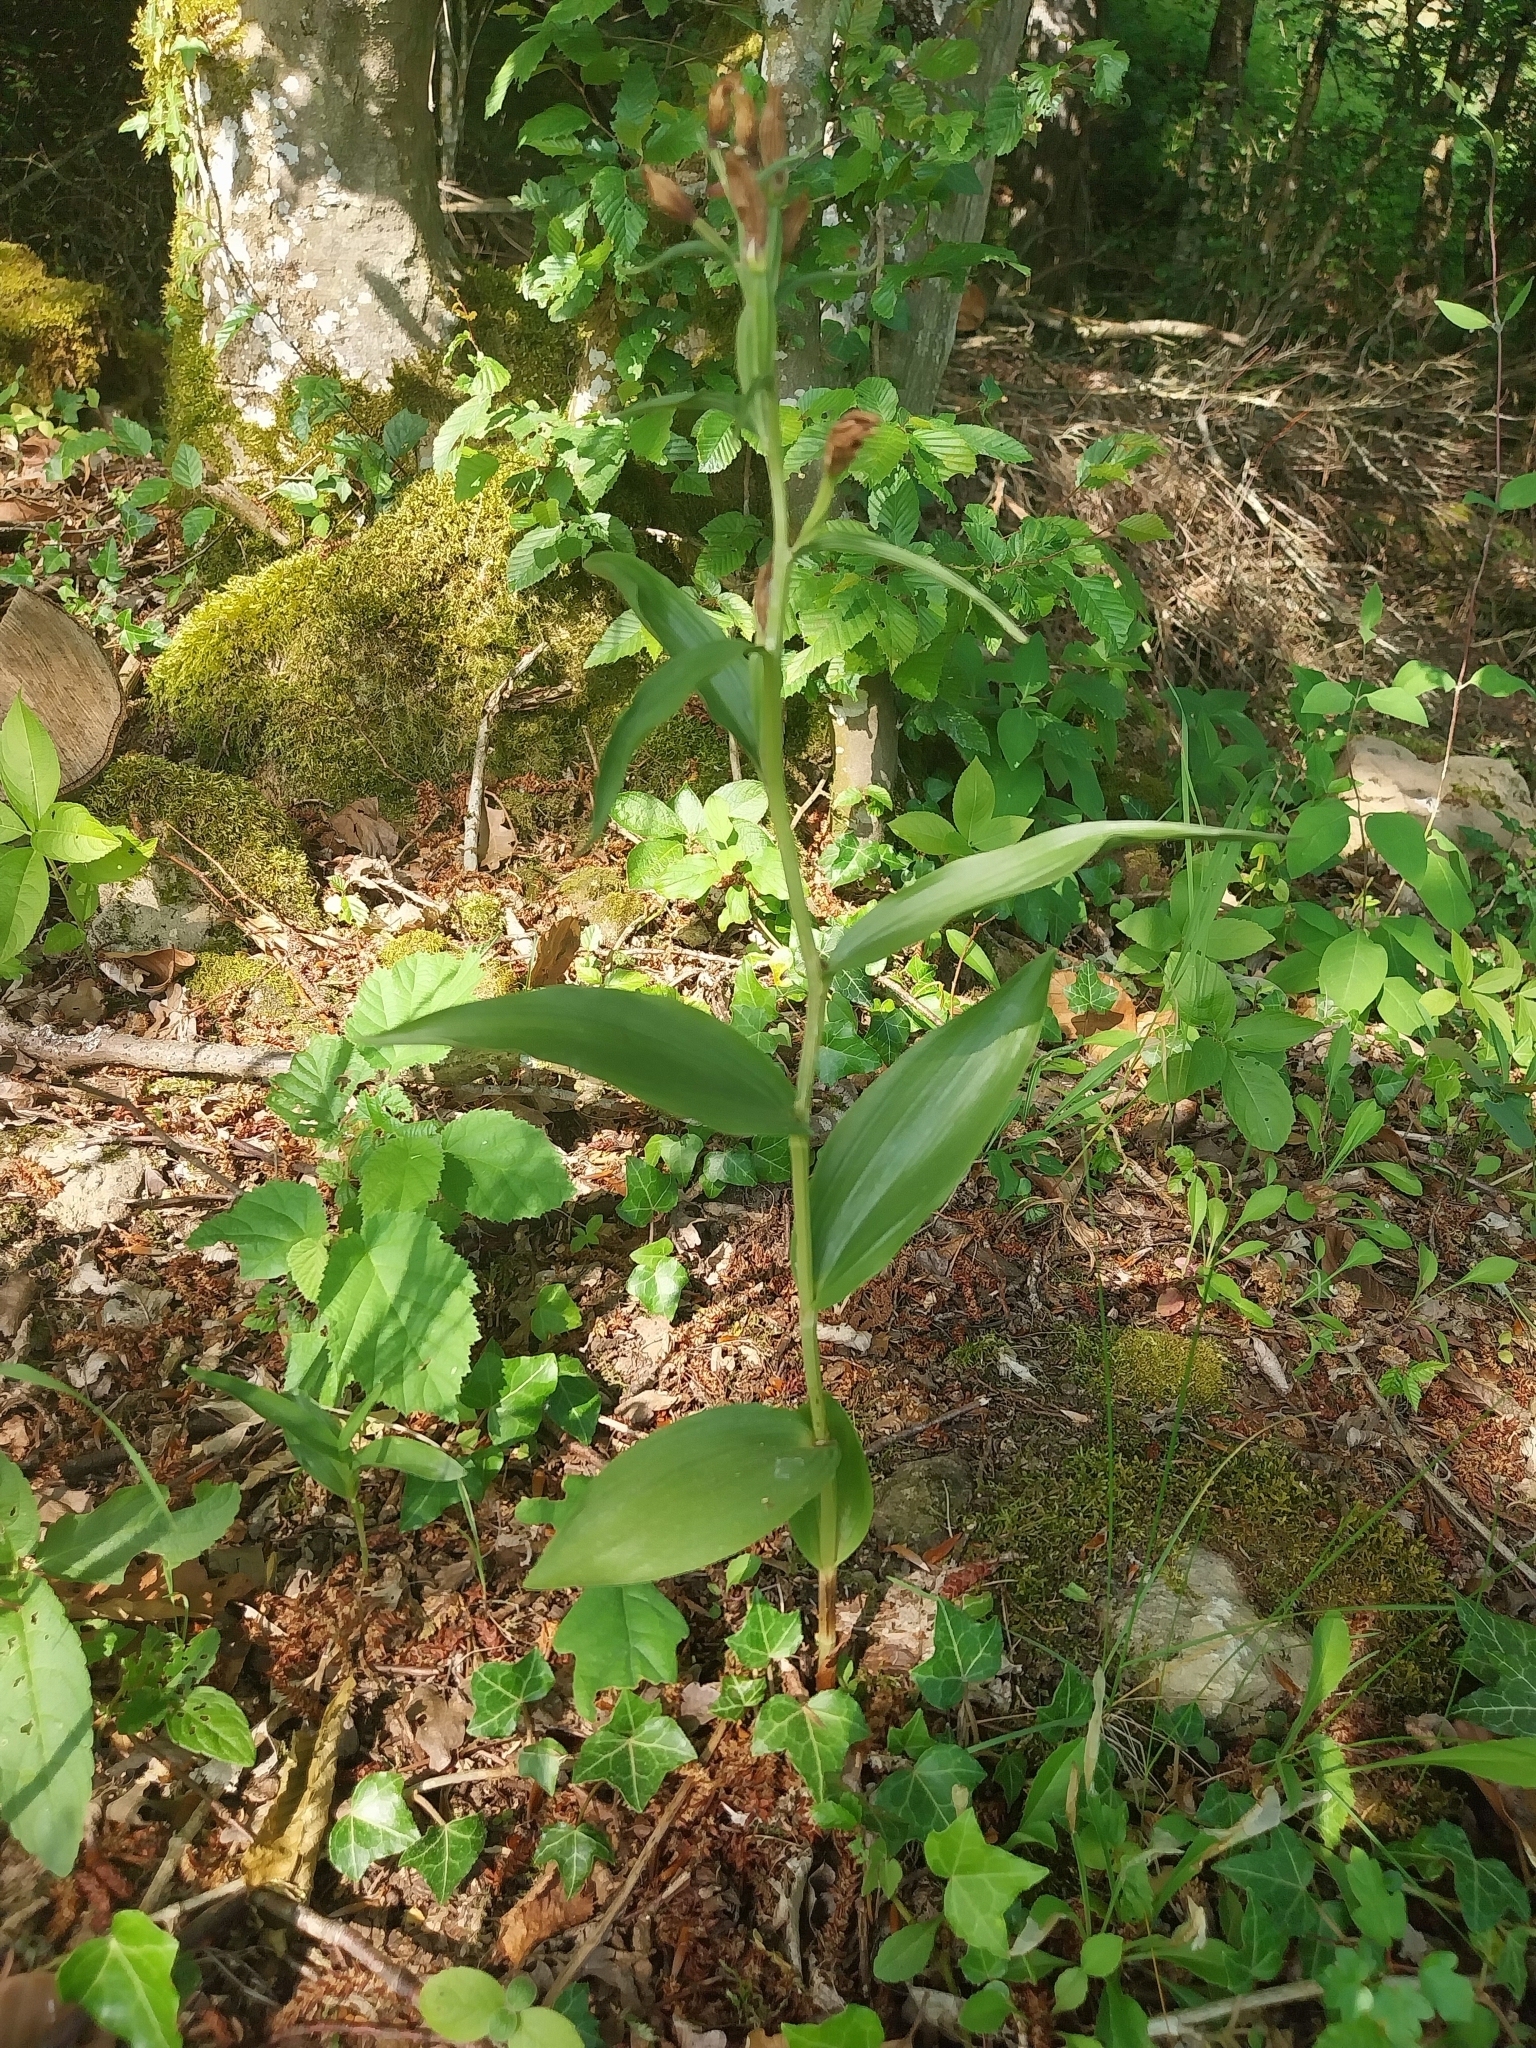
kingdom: Plantae
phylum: Tracheophyta
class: Liliopsida
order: Asparagales
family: Orchidaceae
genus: Cephalanthera
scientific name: Cephalanthera damasonium
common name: White helleborine
